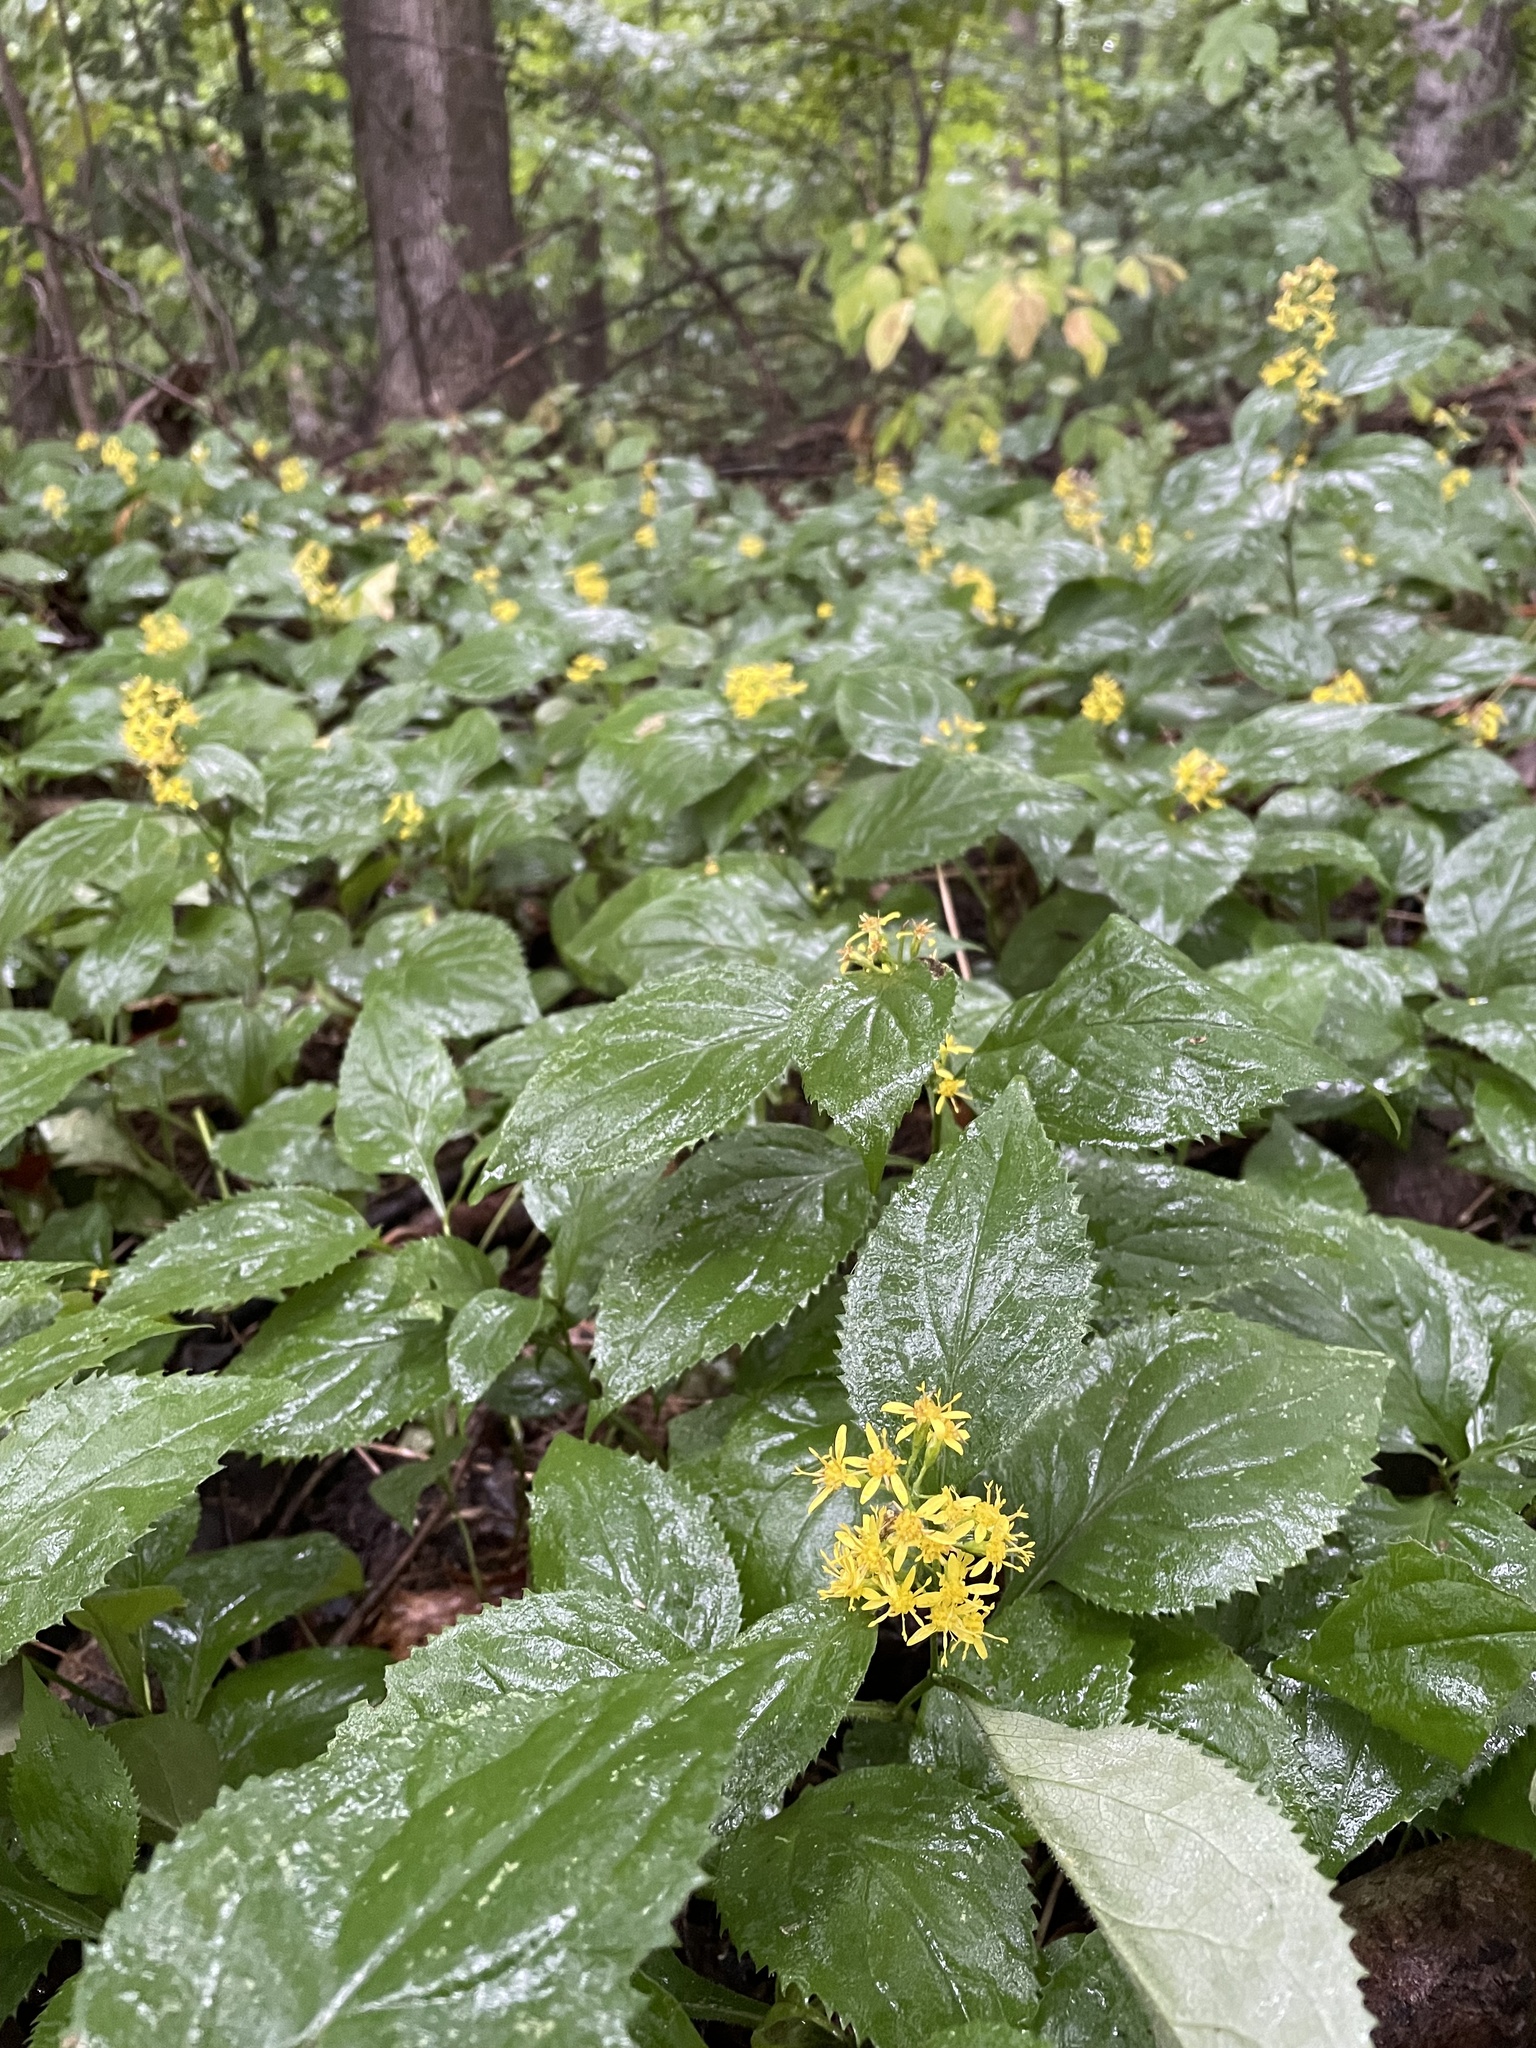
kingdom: Plantae
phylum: Tracheophyta
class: Magnoliopsida
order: Asterales
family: Asteraceae
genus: Solidago
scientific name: Solidago flexicaulis
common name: Zig-zag goldenrod
